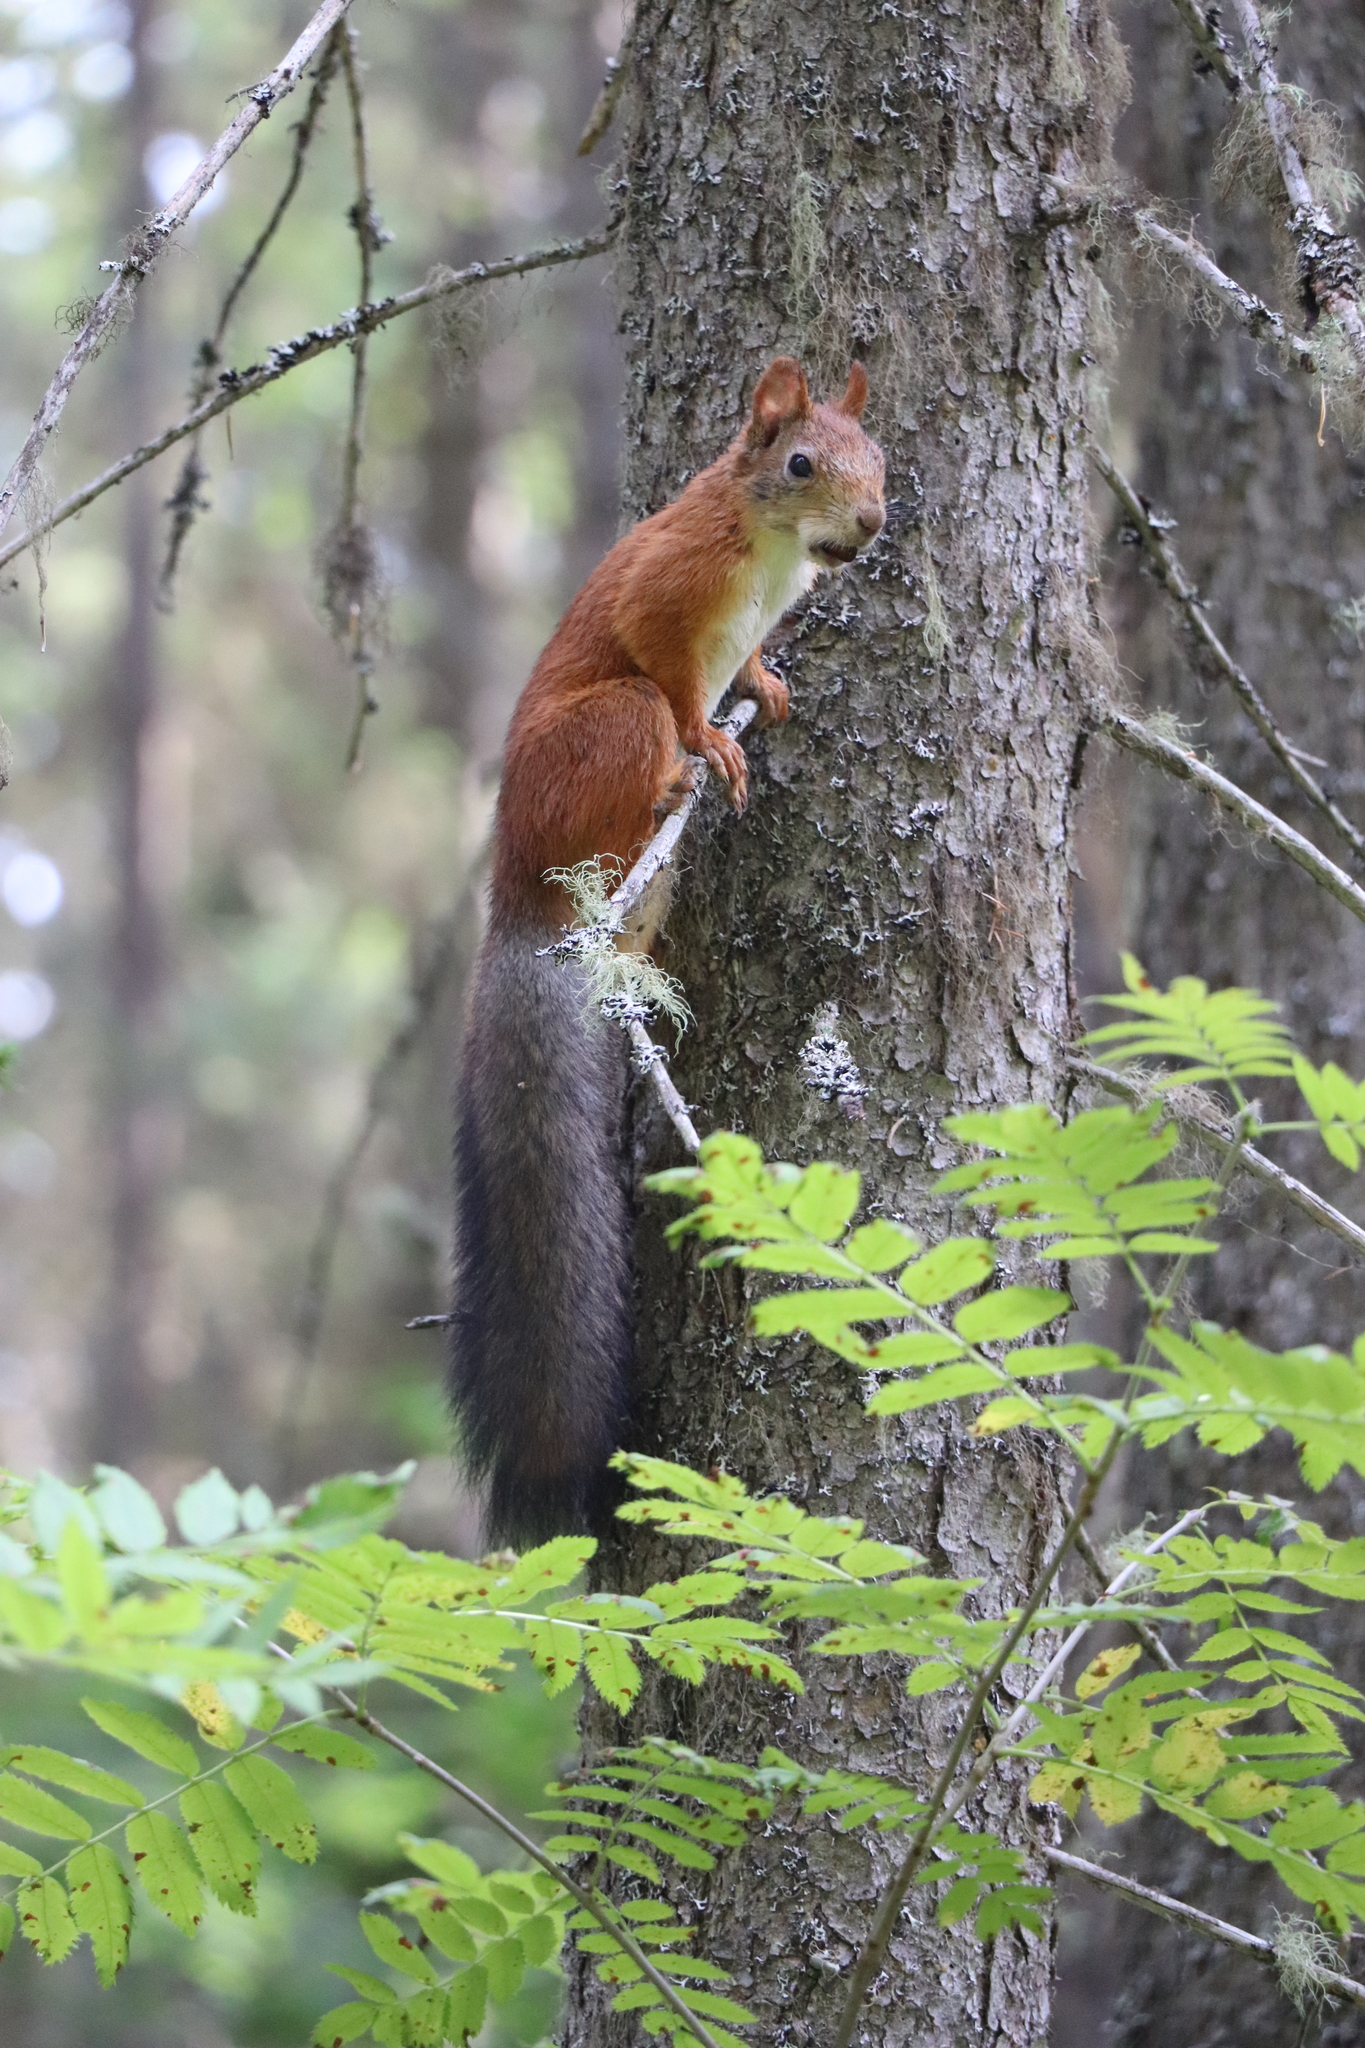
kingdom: Animalia
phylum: Chordata
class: Mammalia
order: Rodentia
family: Sciuridae
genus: Sciurus
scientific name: Sciurus vulgaris
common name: Eurasian red squirrel
